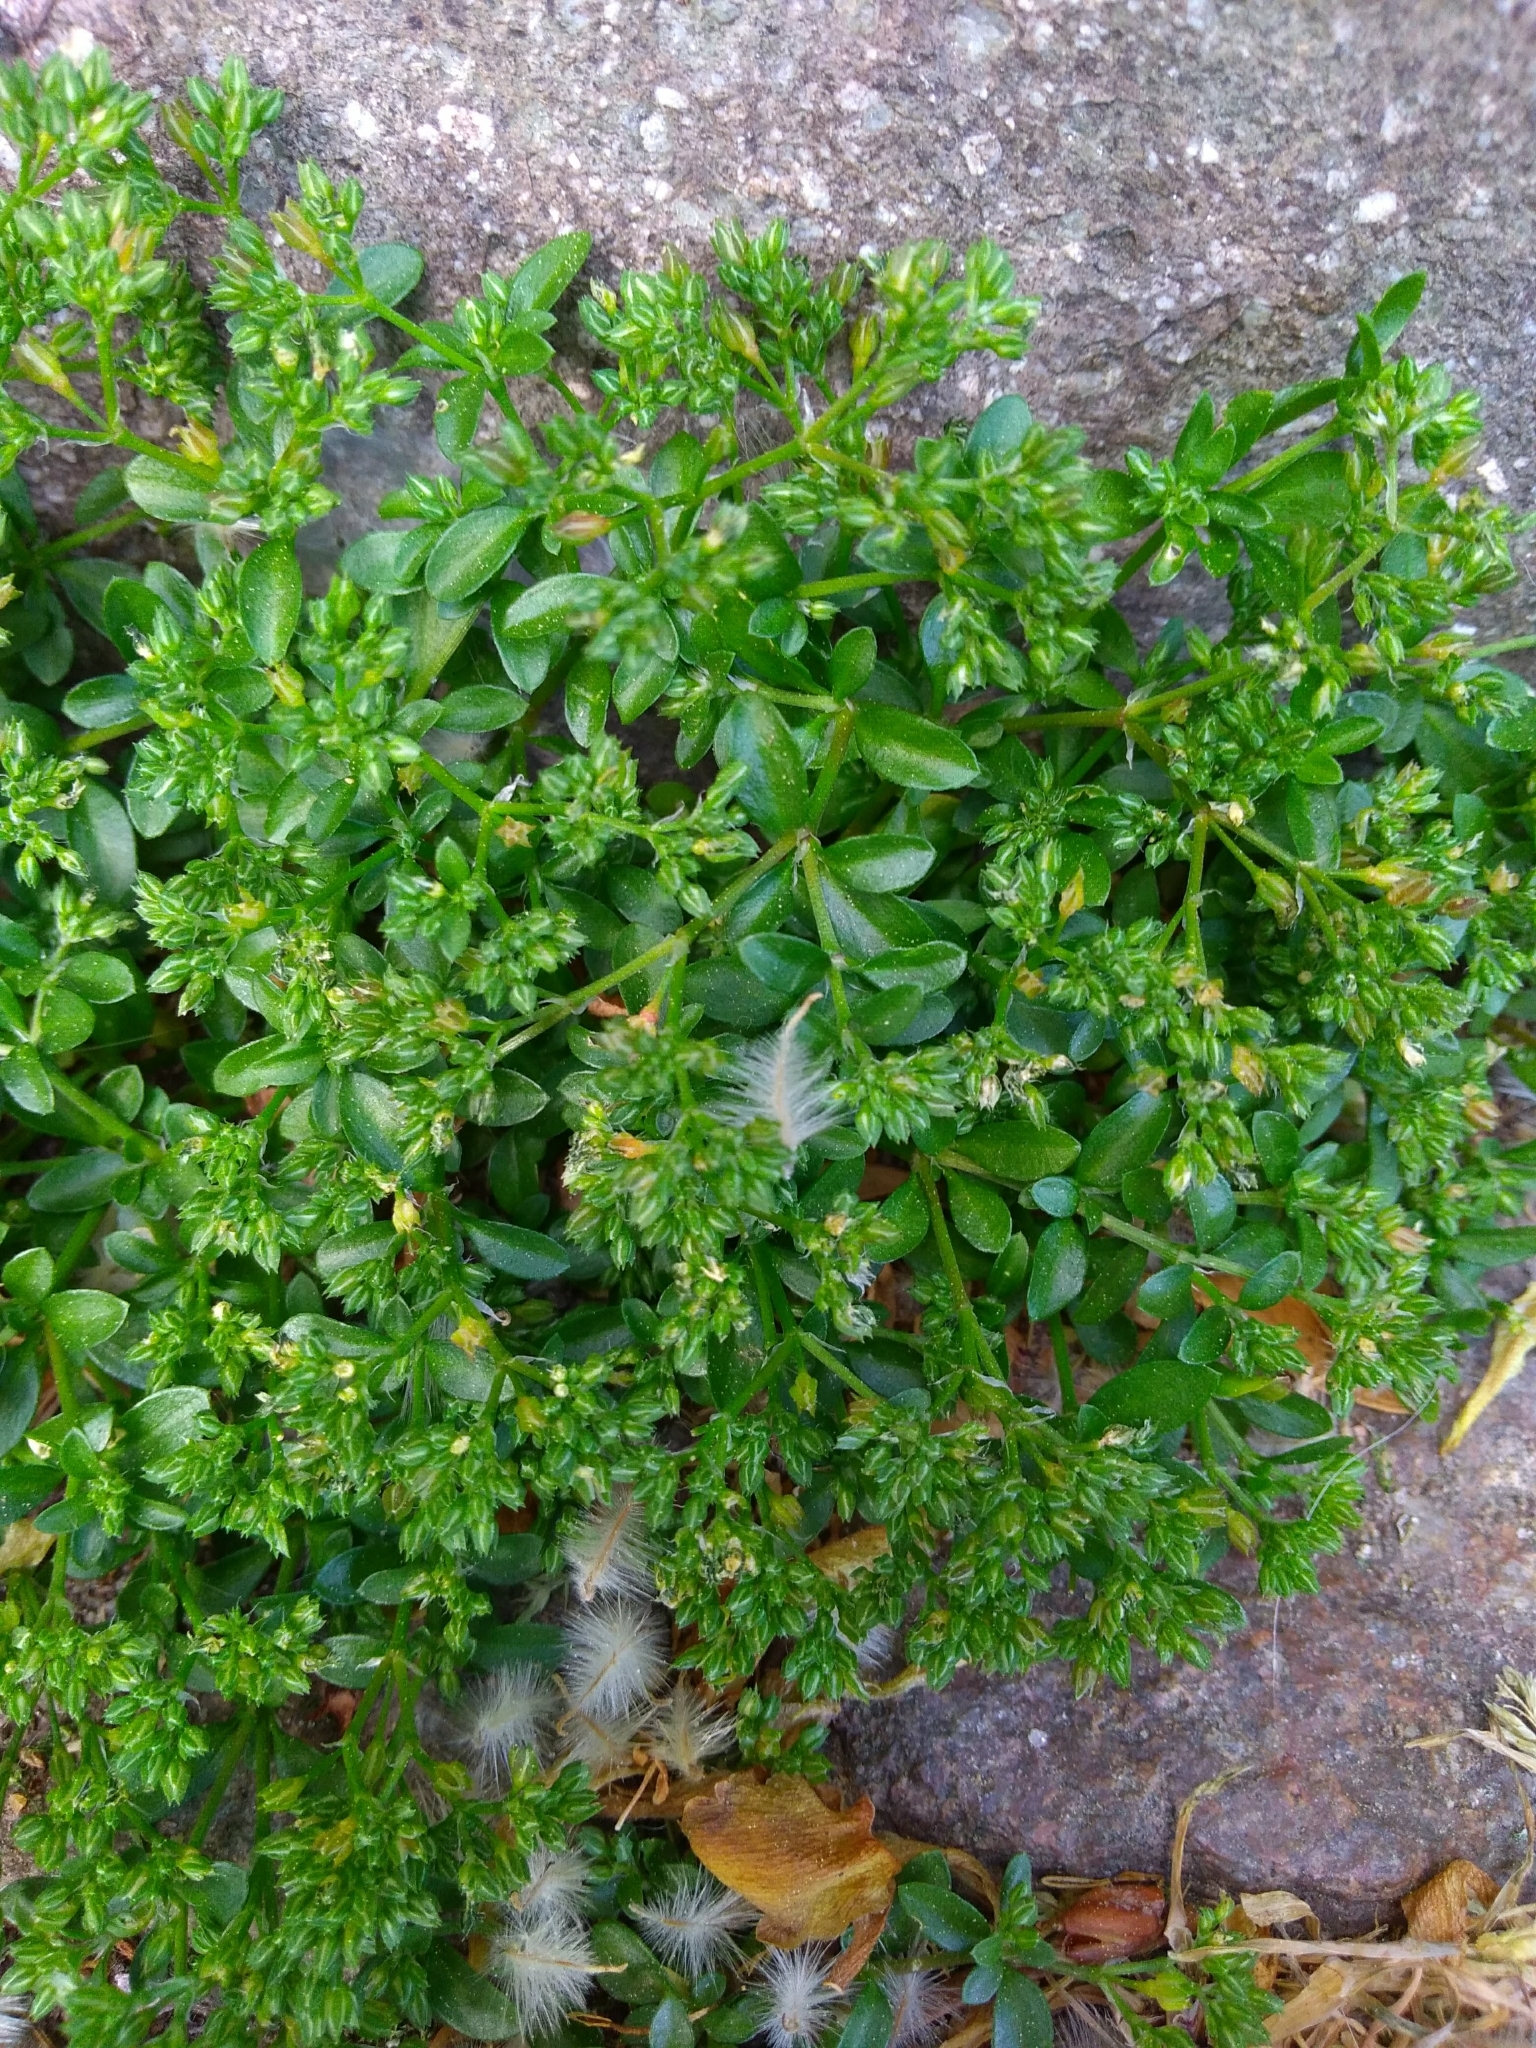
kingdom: Plantae
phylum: Tracheophyta
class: Magnoliopsida
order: Caryophyllales
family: Caryophyllaceae
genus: Polycarpon
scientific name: Polycarpon tetraphyllum
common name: Four-leaved all-seed
